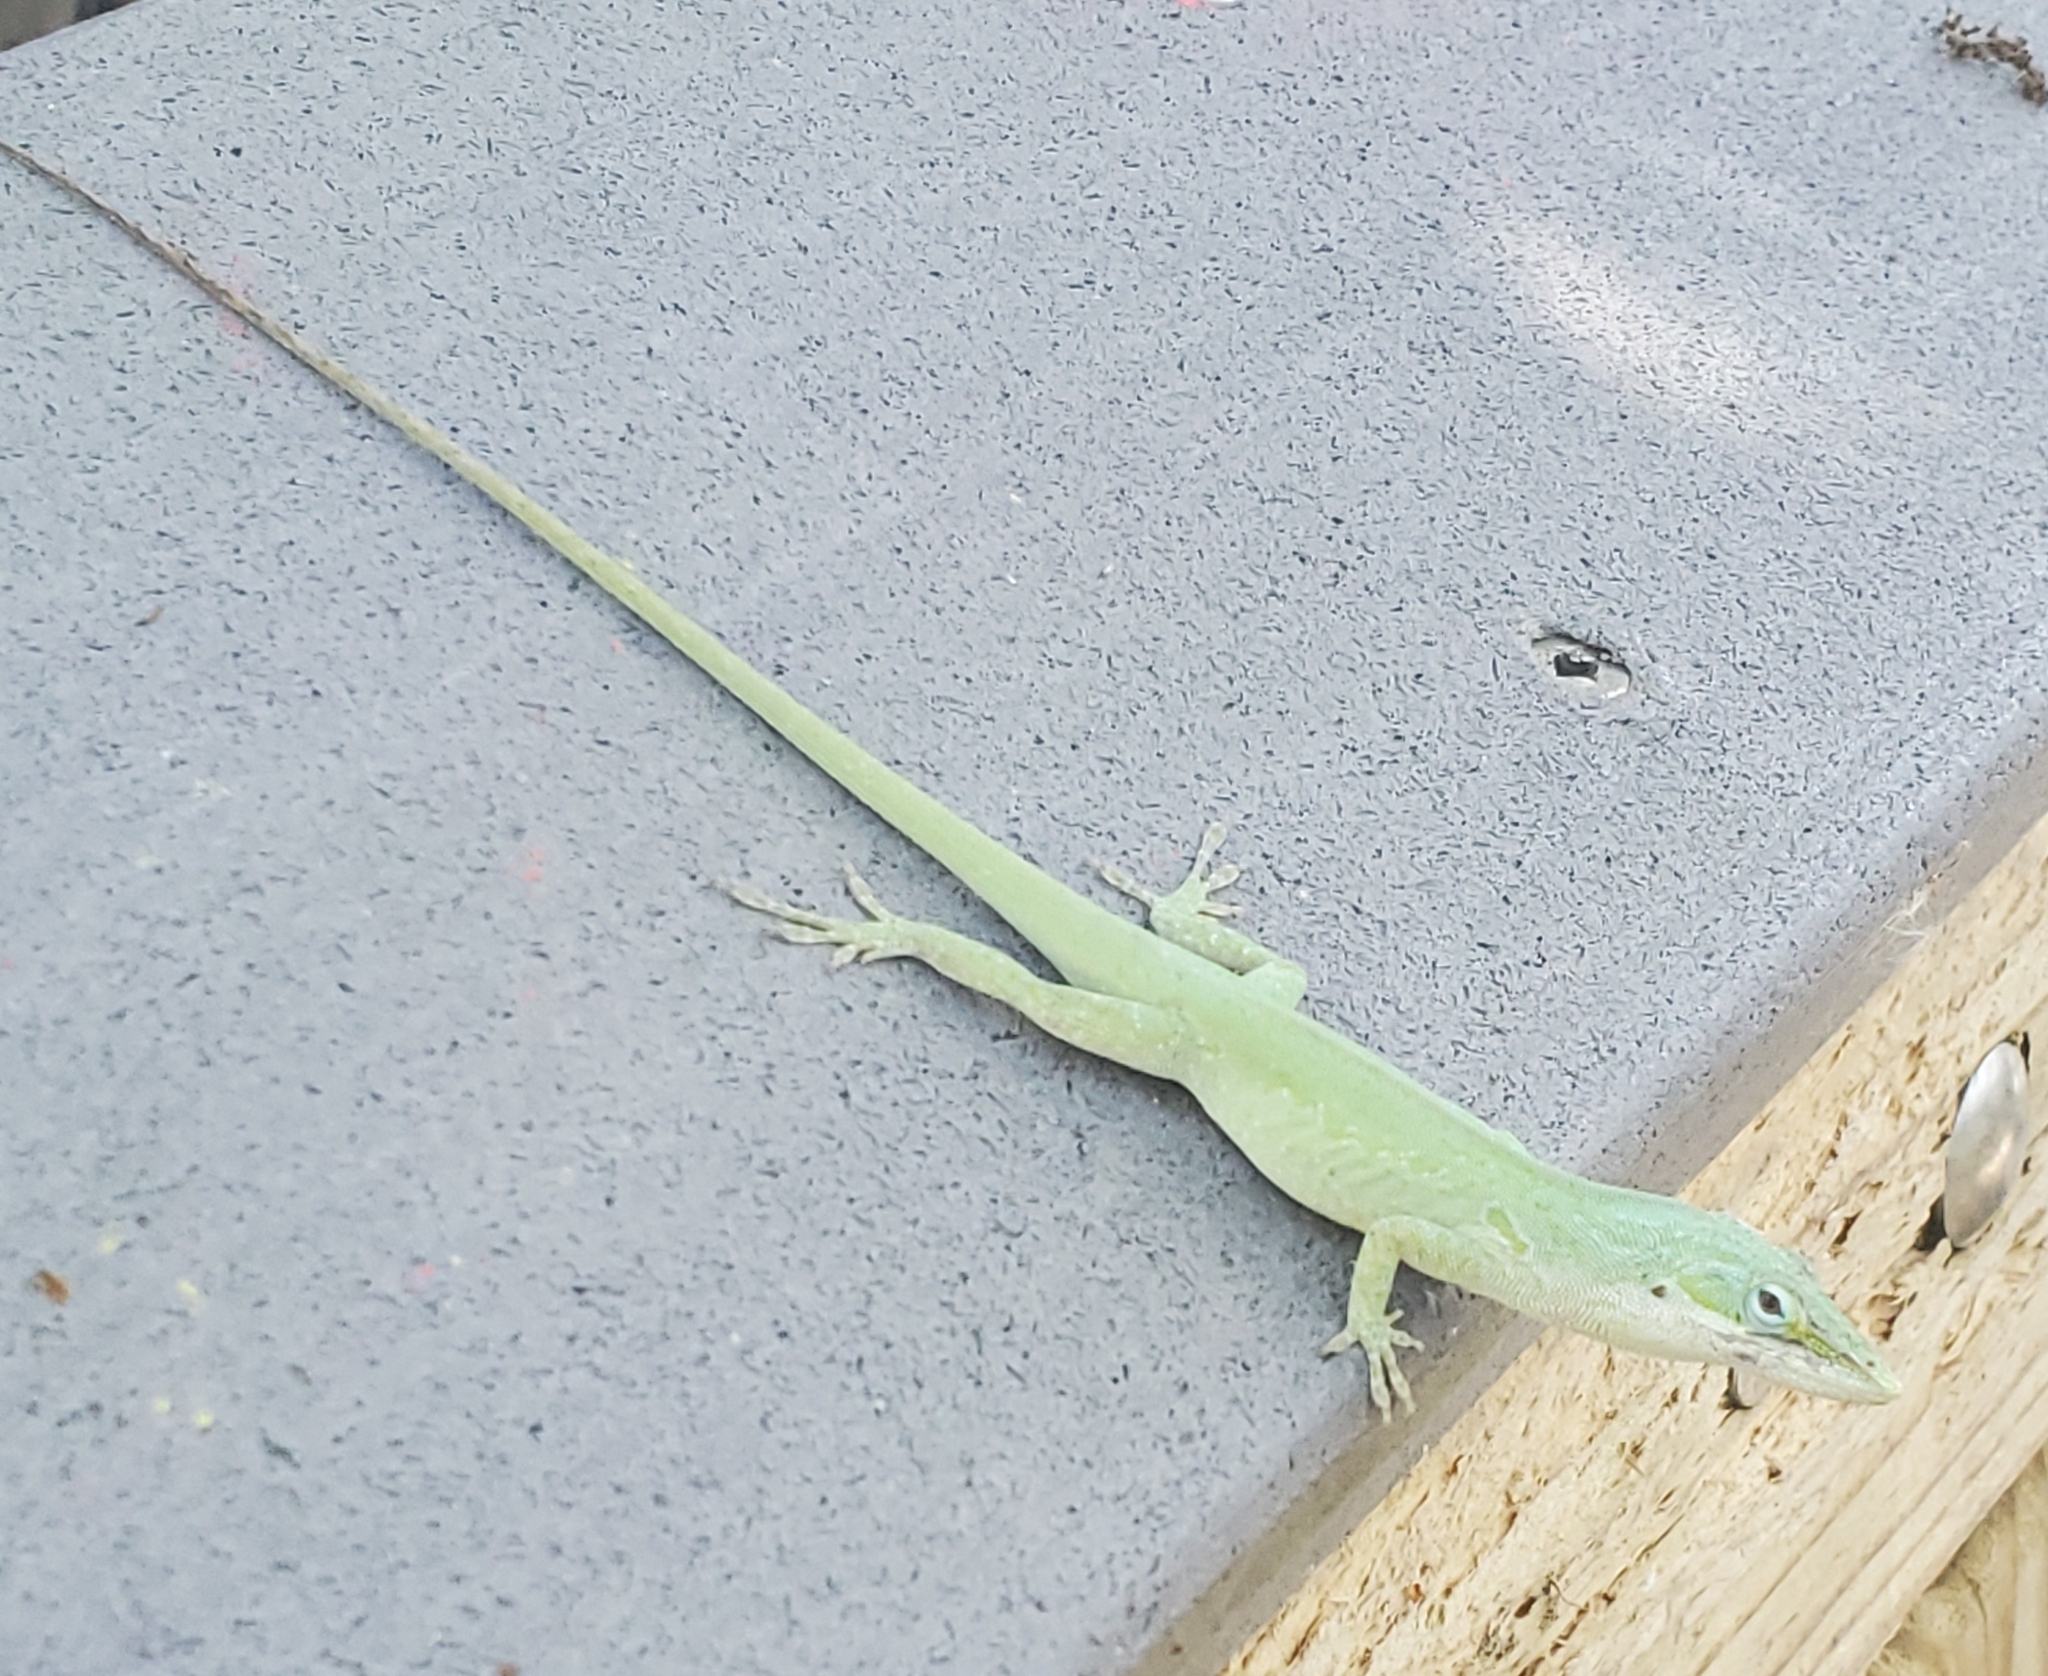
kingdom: Animalia
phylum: Chordata
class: Squamata
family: Dactyloidae
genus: Anolis
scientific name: Anolis carolinensis
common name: Green anole
